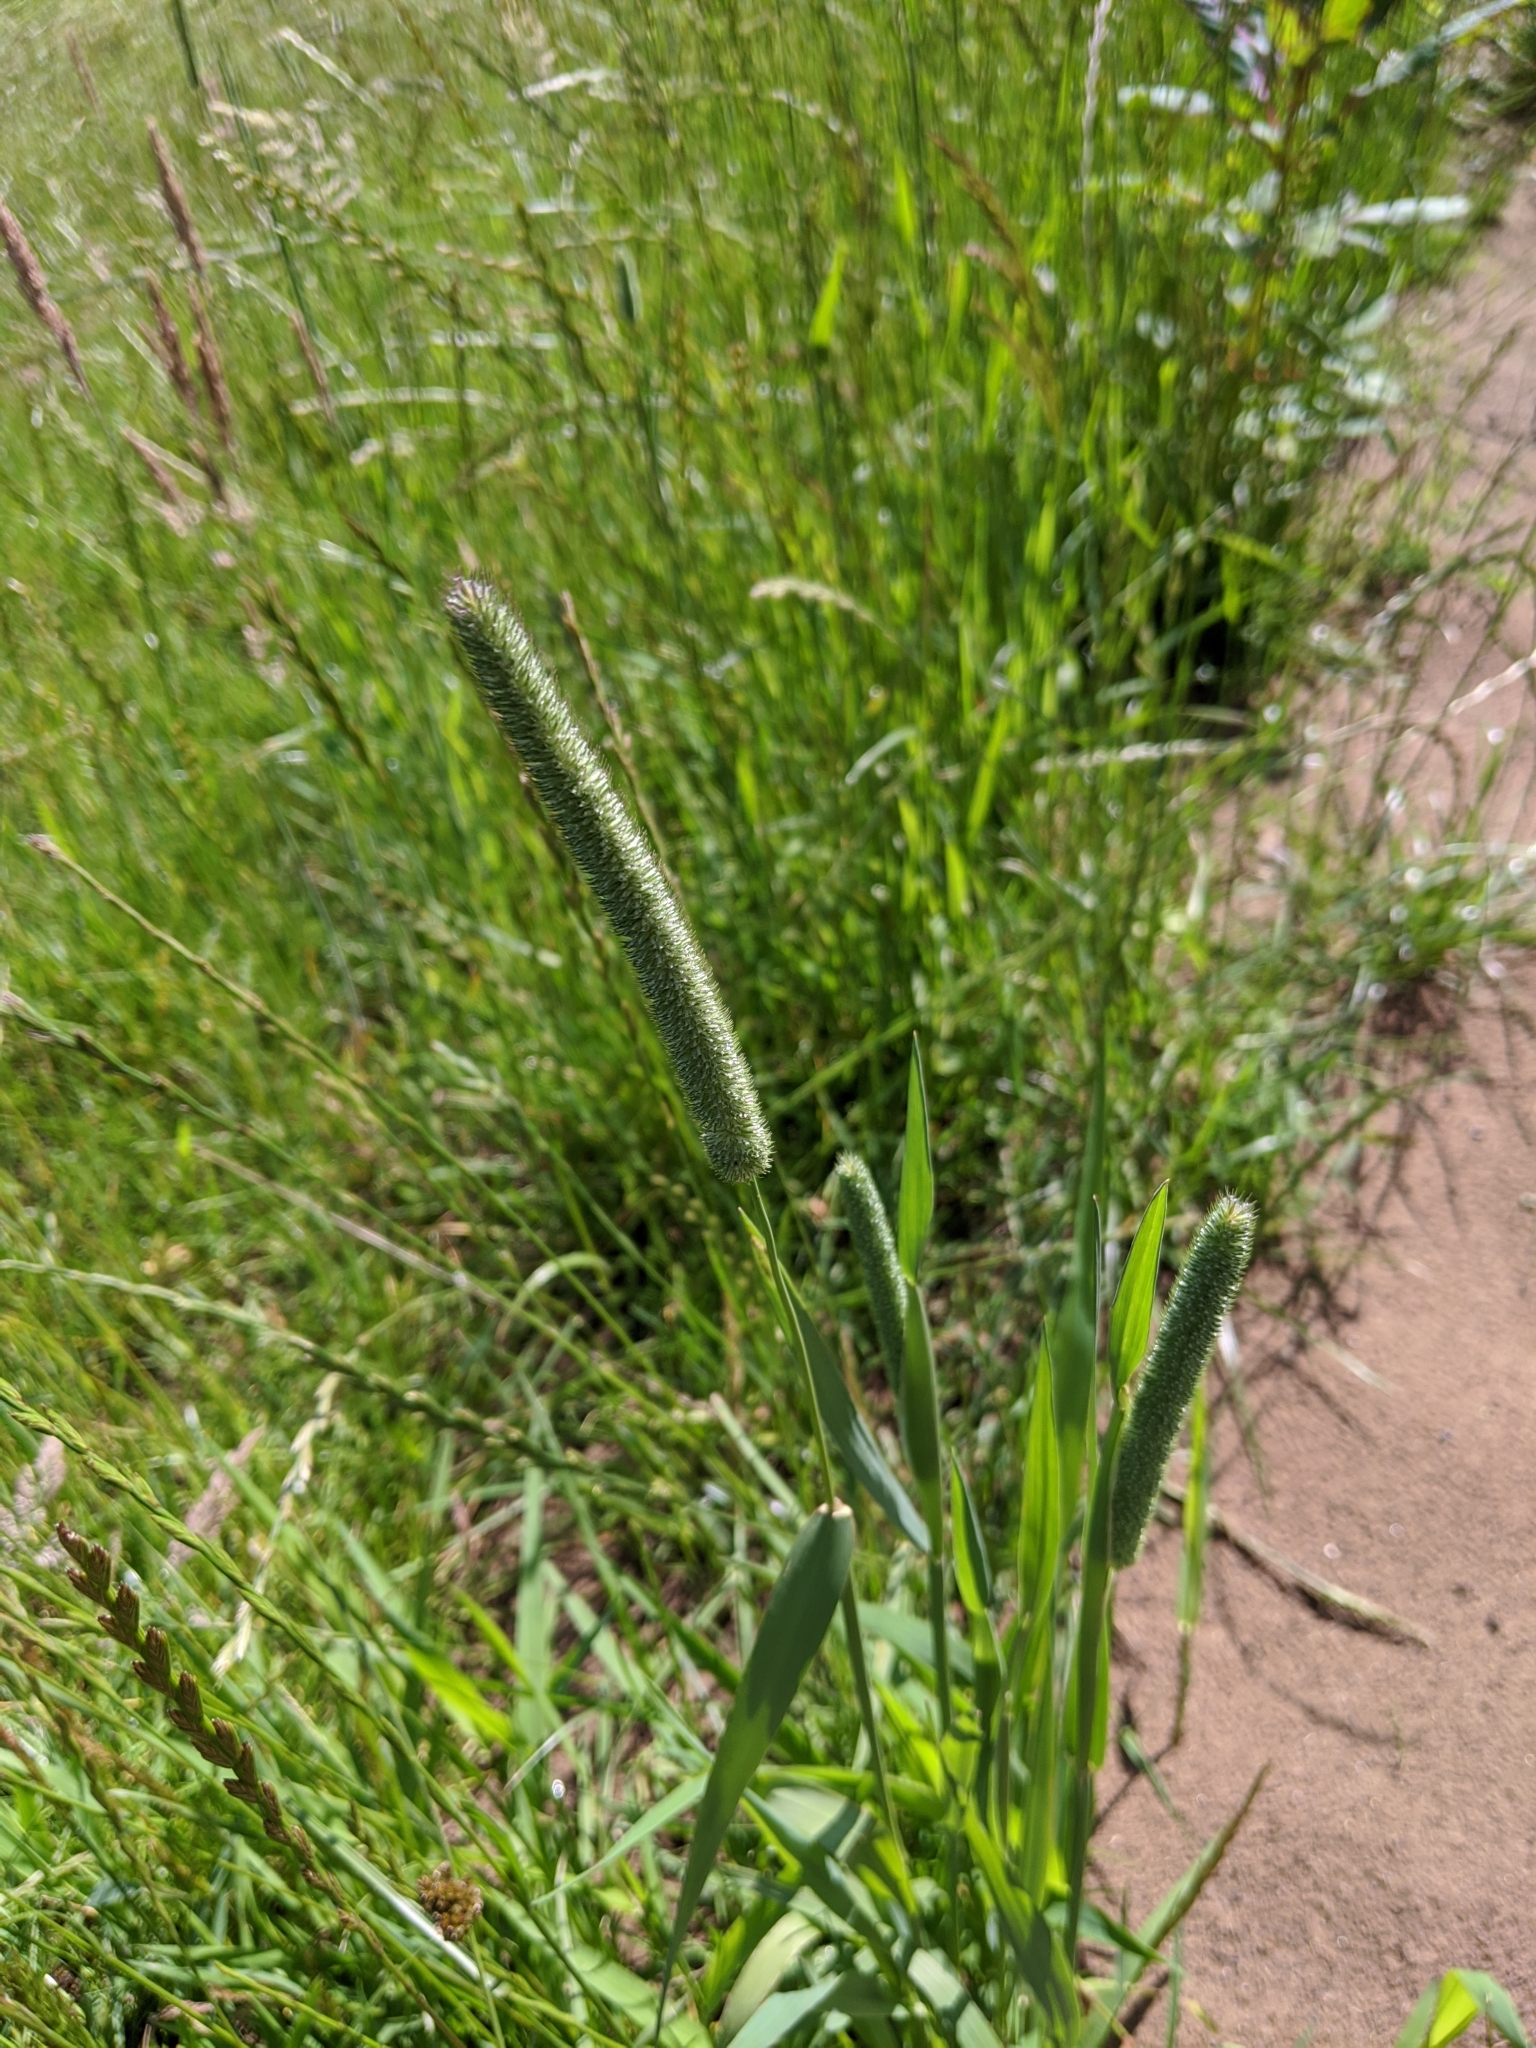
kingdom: Plantae
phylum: Tracheophyta
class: Liliopsida
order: Poales
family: Poaceae
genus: Phleum
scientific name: Phleum pratense
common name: Timothy grass
